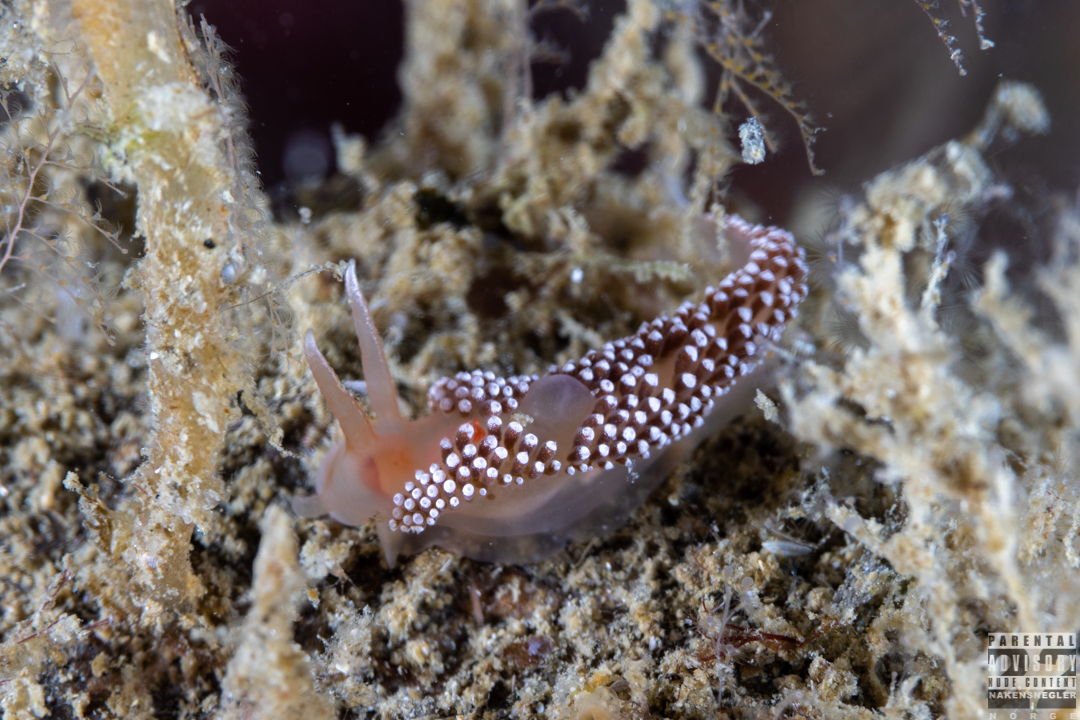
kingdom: Animalia
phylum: Mollusca
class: Gastropoda
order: Nudibranchia
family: Coryphellidae
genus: Coryphella
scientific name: Coryphella verrucosa
